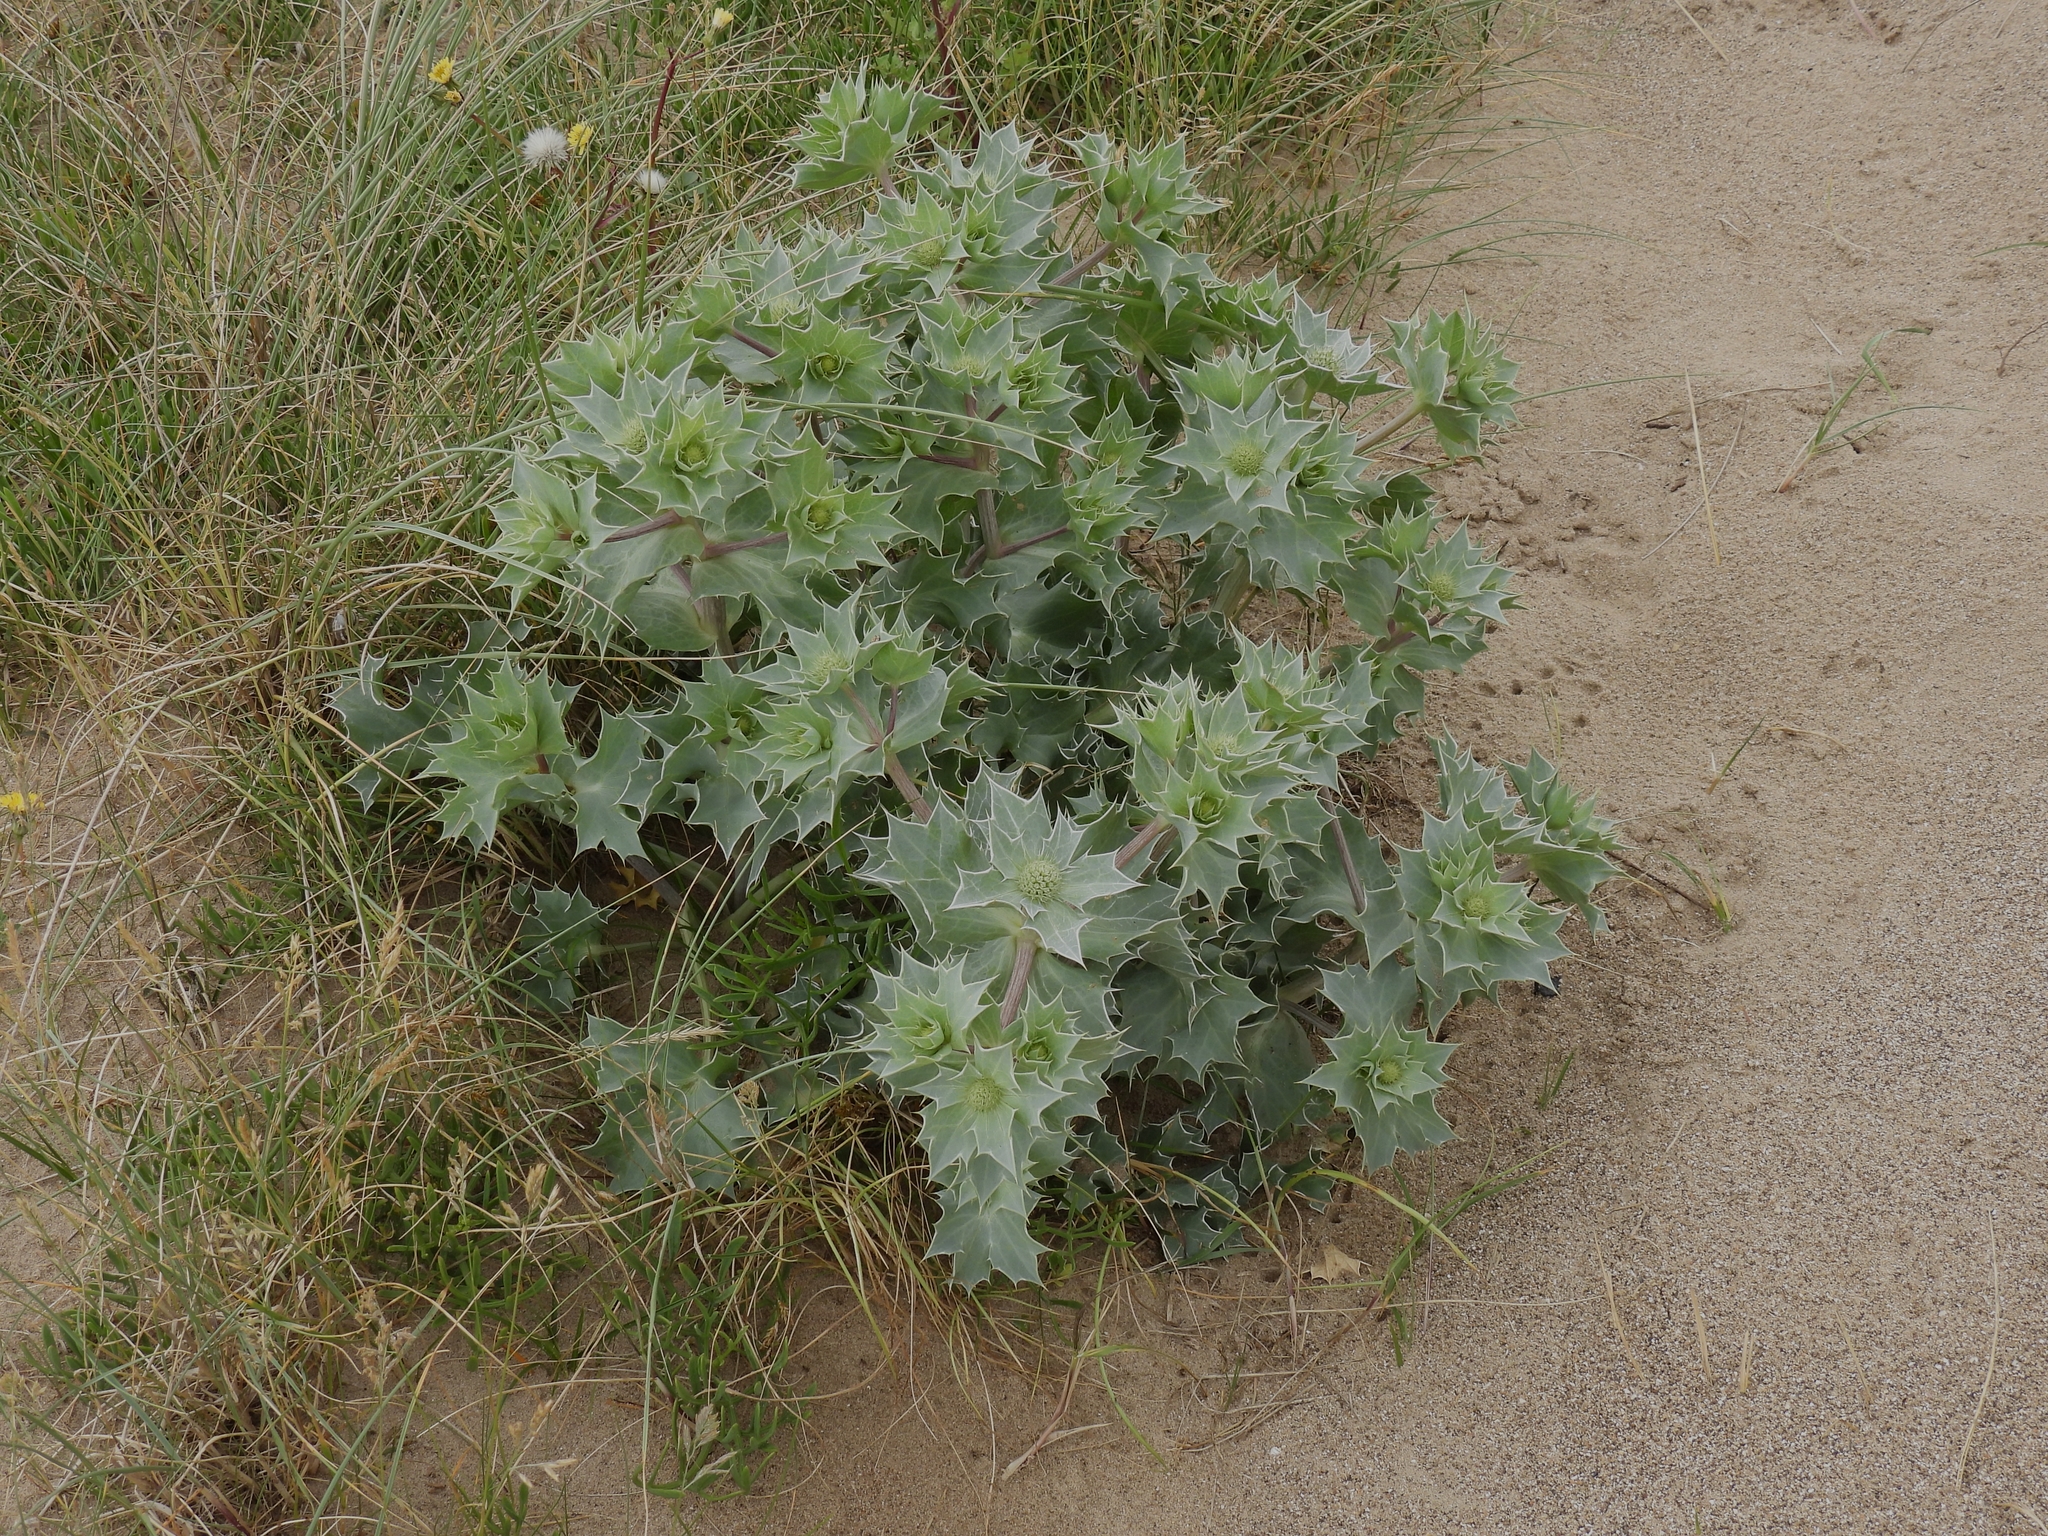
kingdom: Plantae
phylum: Tracheophyta
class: Magnoliopsida
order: Apiales
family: Apiaceae
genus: Eryngium
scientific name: Eryngium maritimum
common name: Sea-holly
